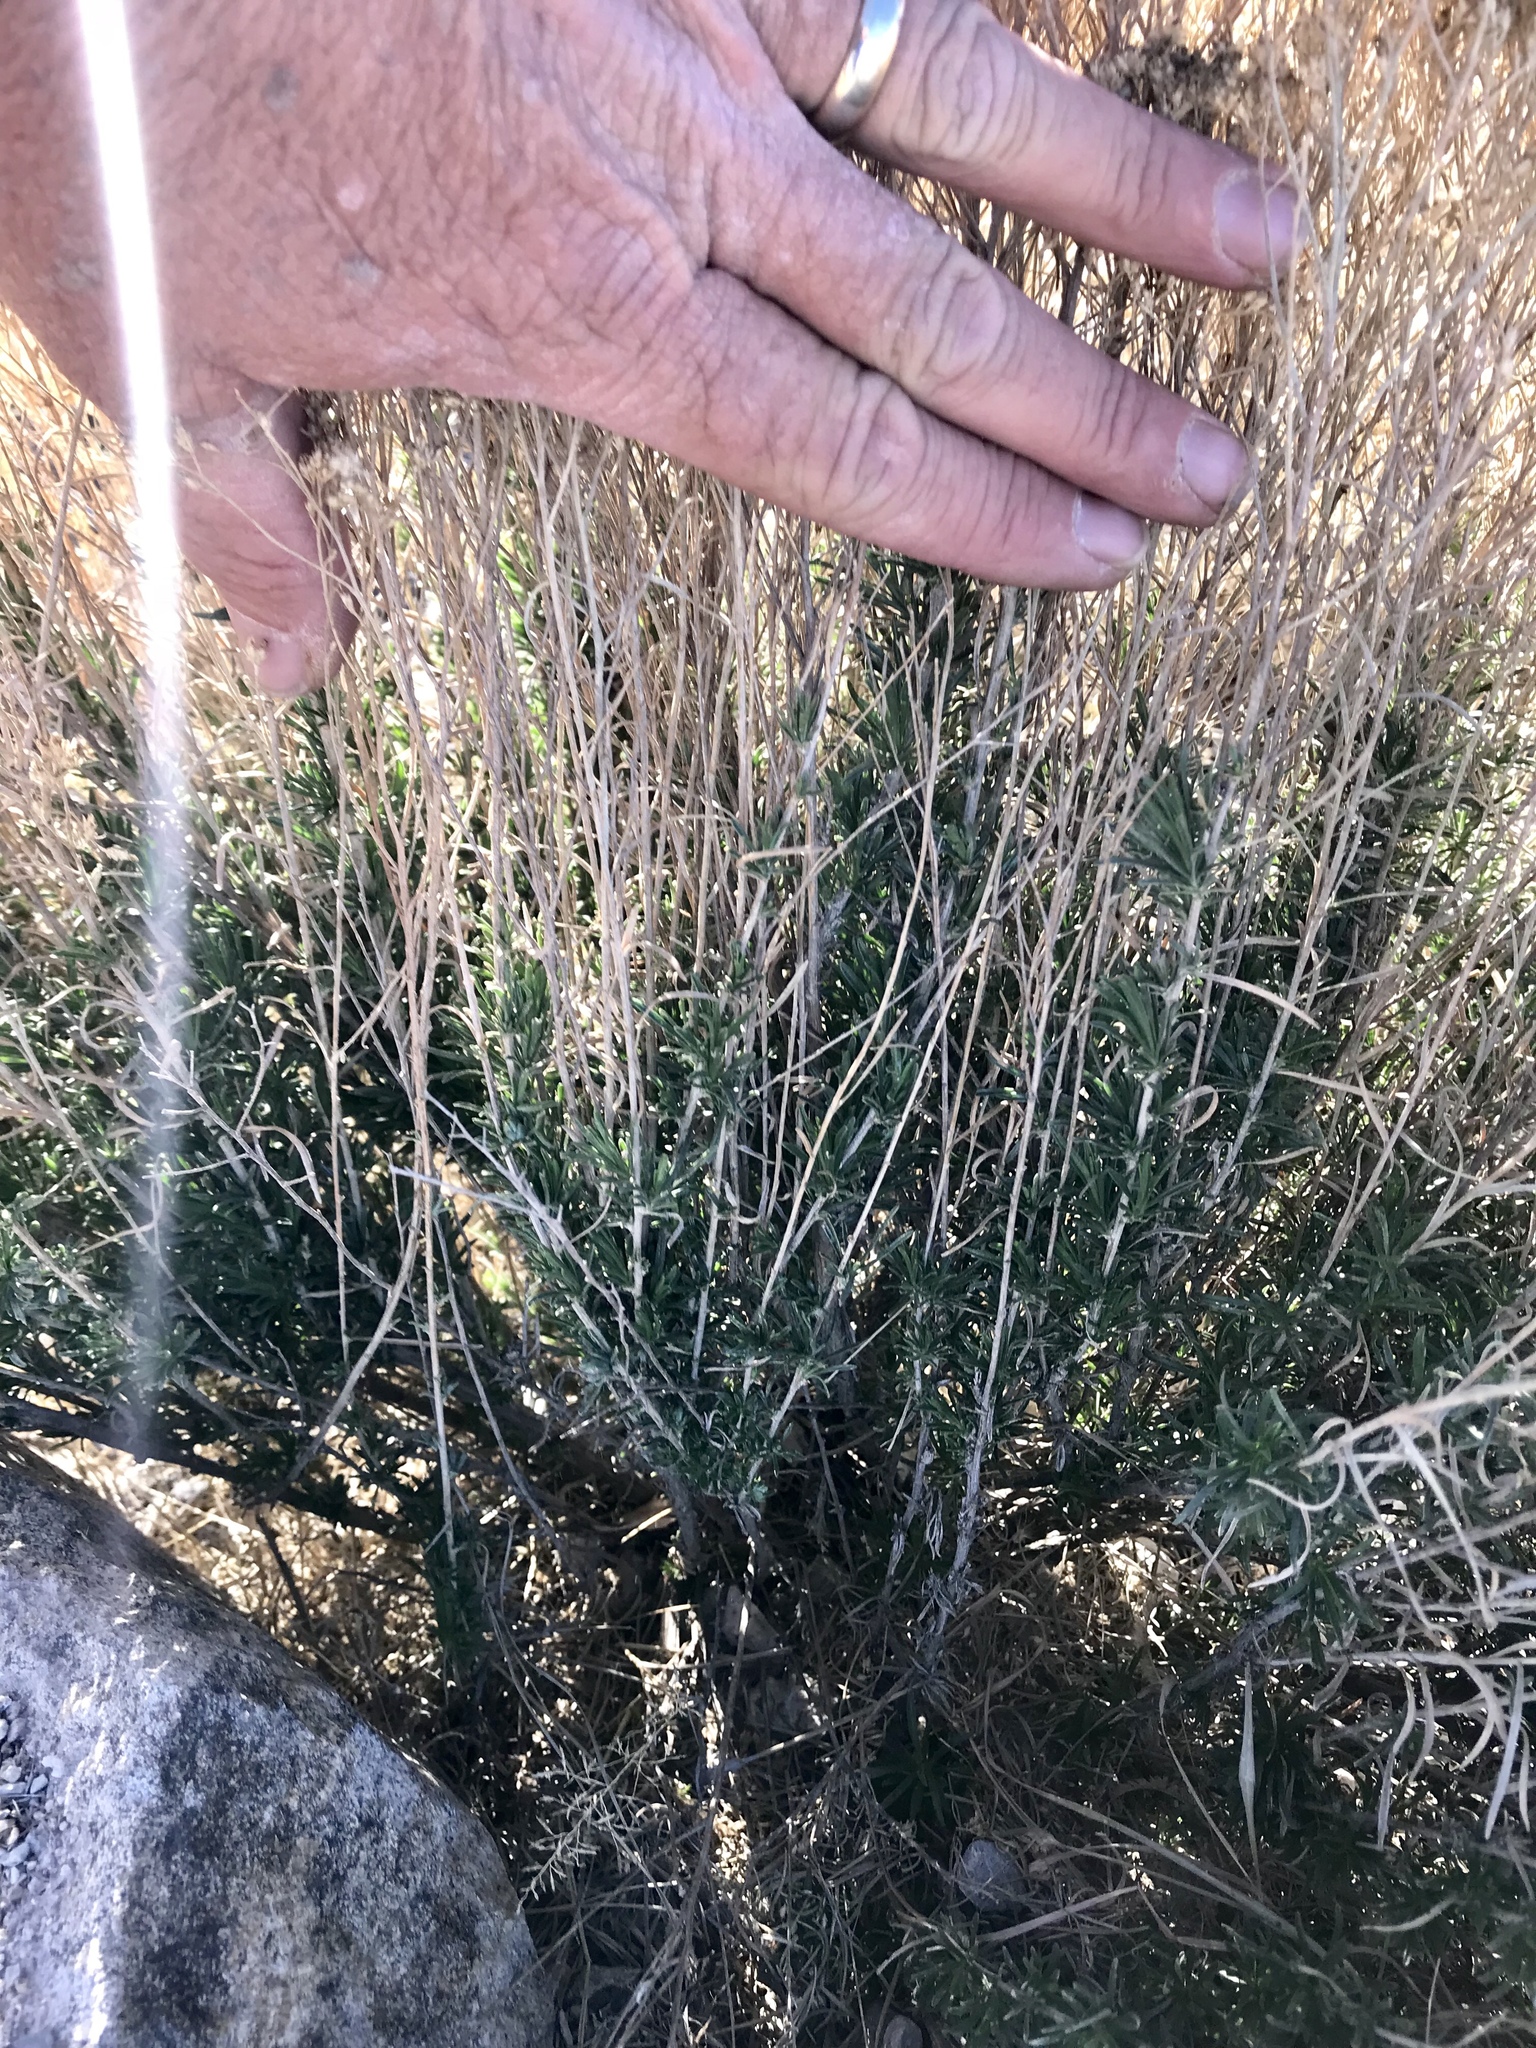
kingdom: Plantae
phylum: Tracheophyta
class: Magnoliopsida
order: Asterales
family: Asteraceae
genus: Gutierrezia
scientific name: Gutierrezia sarothrae
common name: Broom snakeweed
